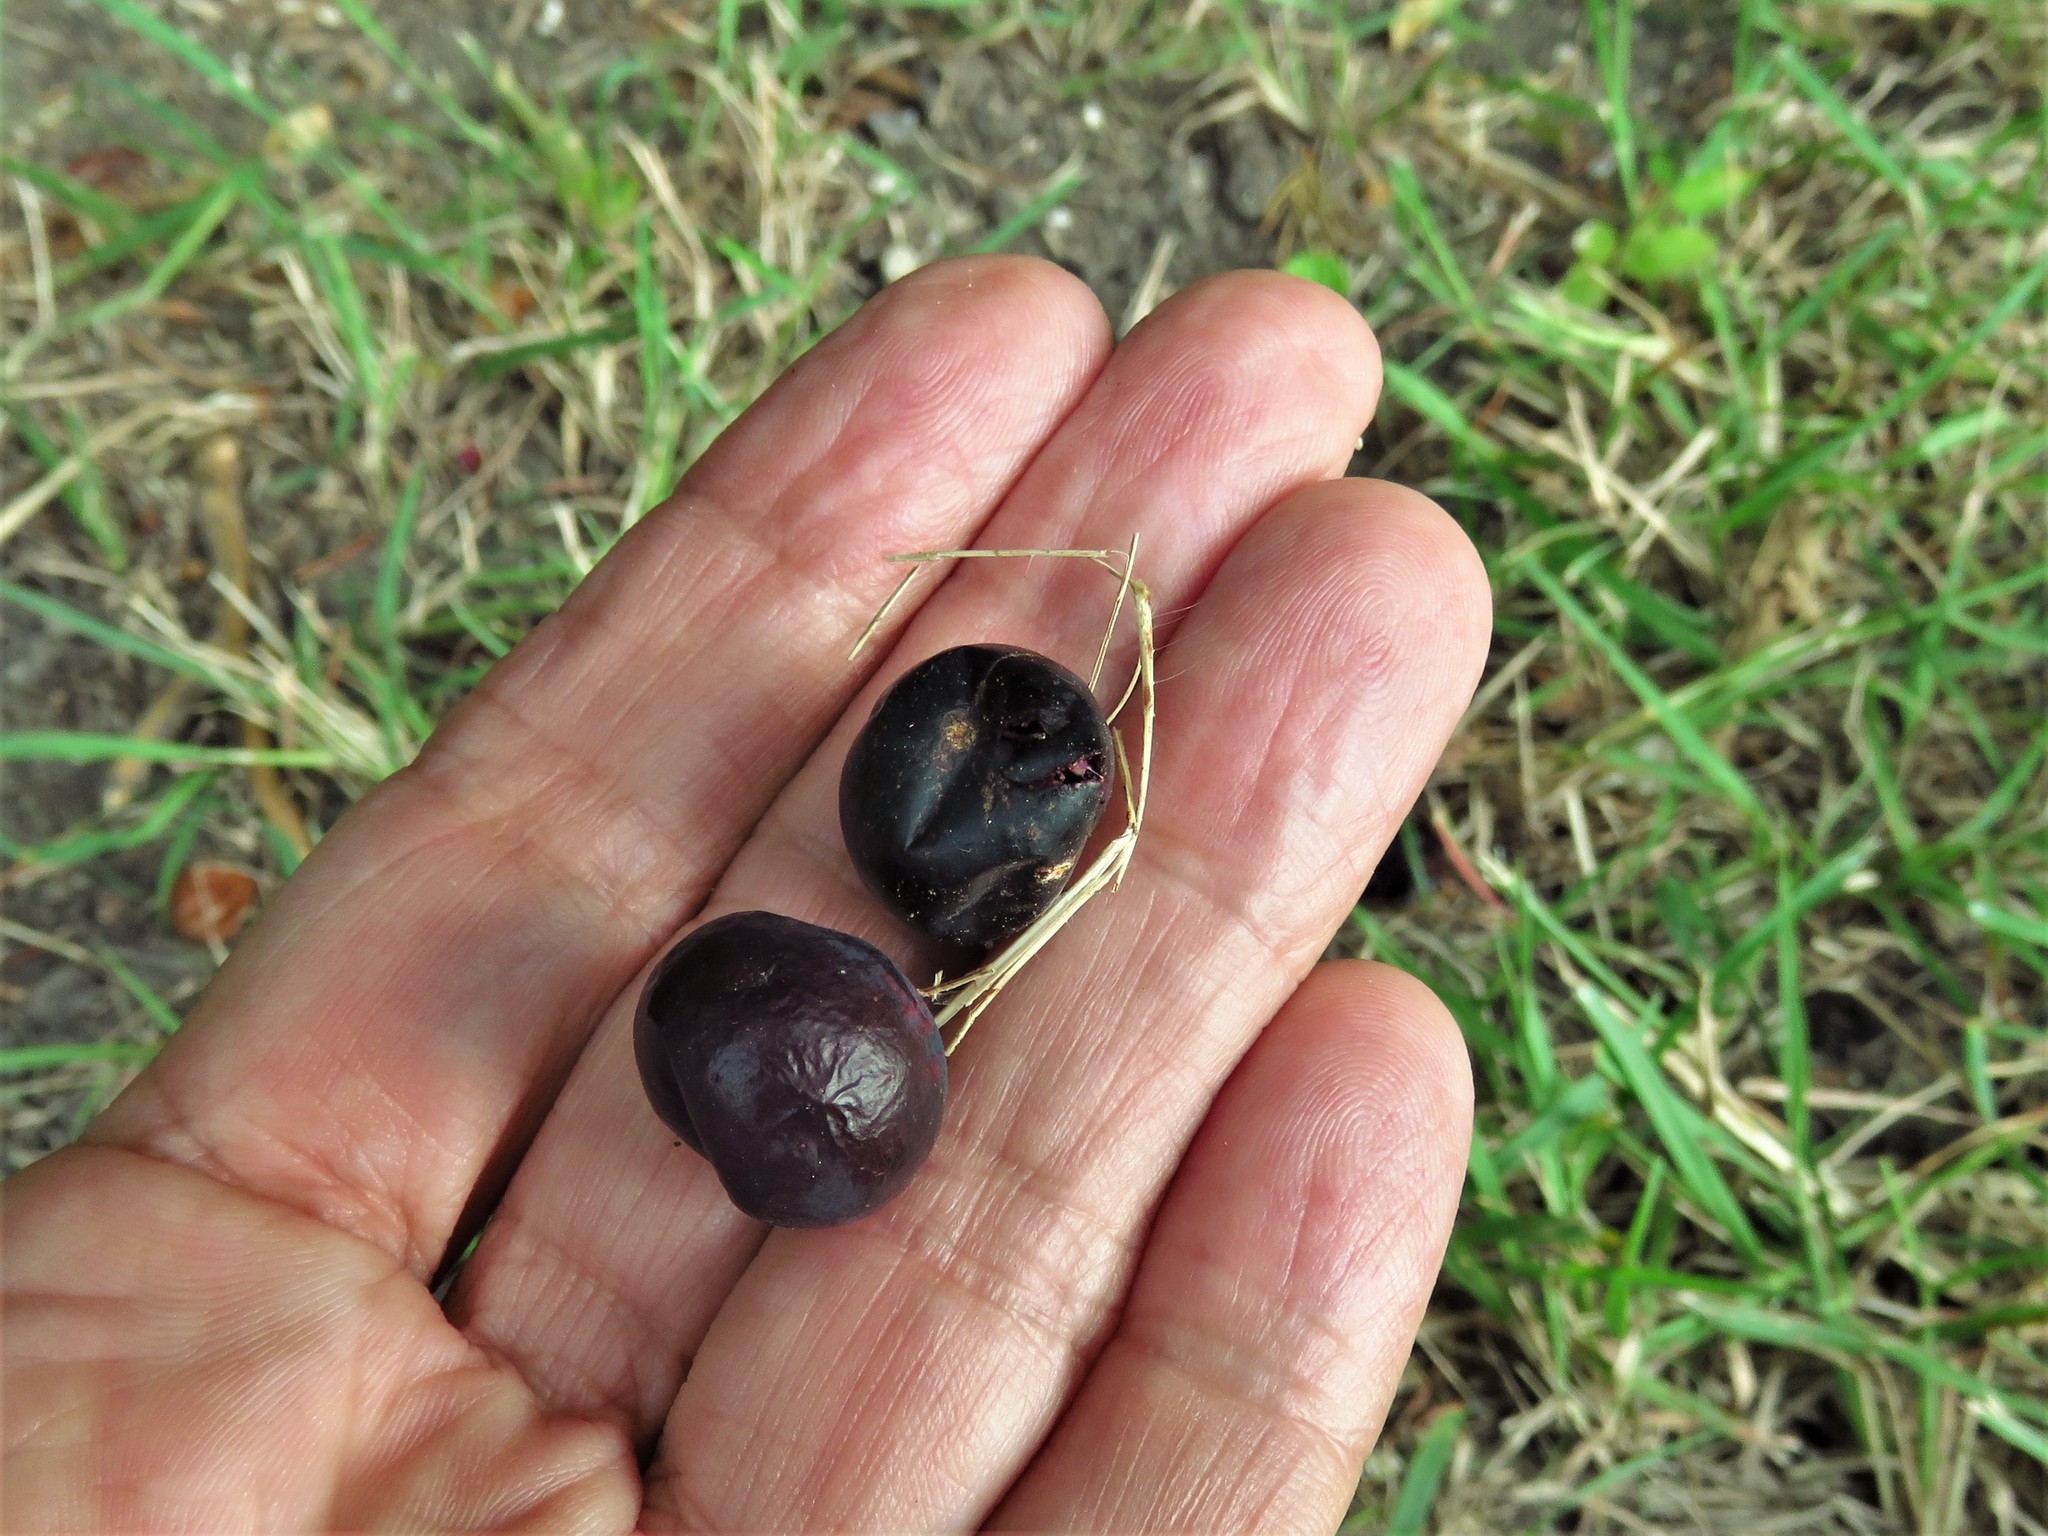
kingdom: Plantae
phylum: Tracheophyta
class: Magnoliopsida
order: Vitales
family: Vitaceae
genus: Vitis
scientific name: Vitis mustangensis
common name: Mustang grape
